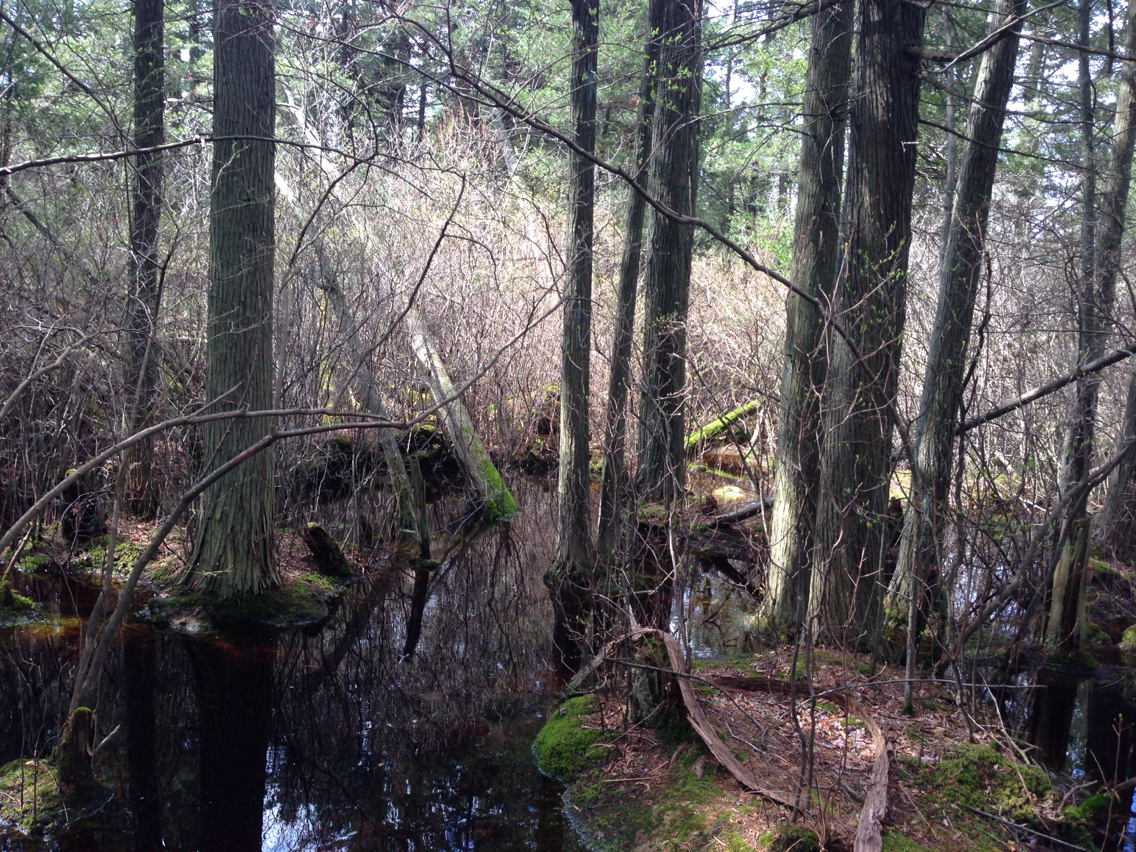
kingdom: Plantae
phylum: Tracheophyta
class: Pinopsida
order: Pinales
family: Cupressaceae
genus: Chamaecyparis
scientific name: Chamaecyparis thyoides
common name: Atlantic white cedar
